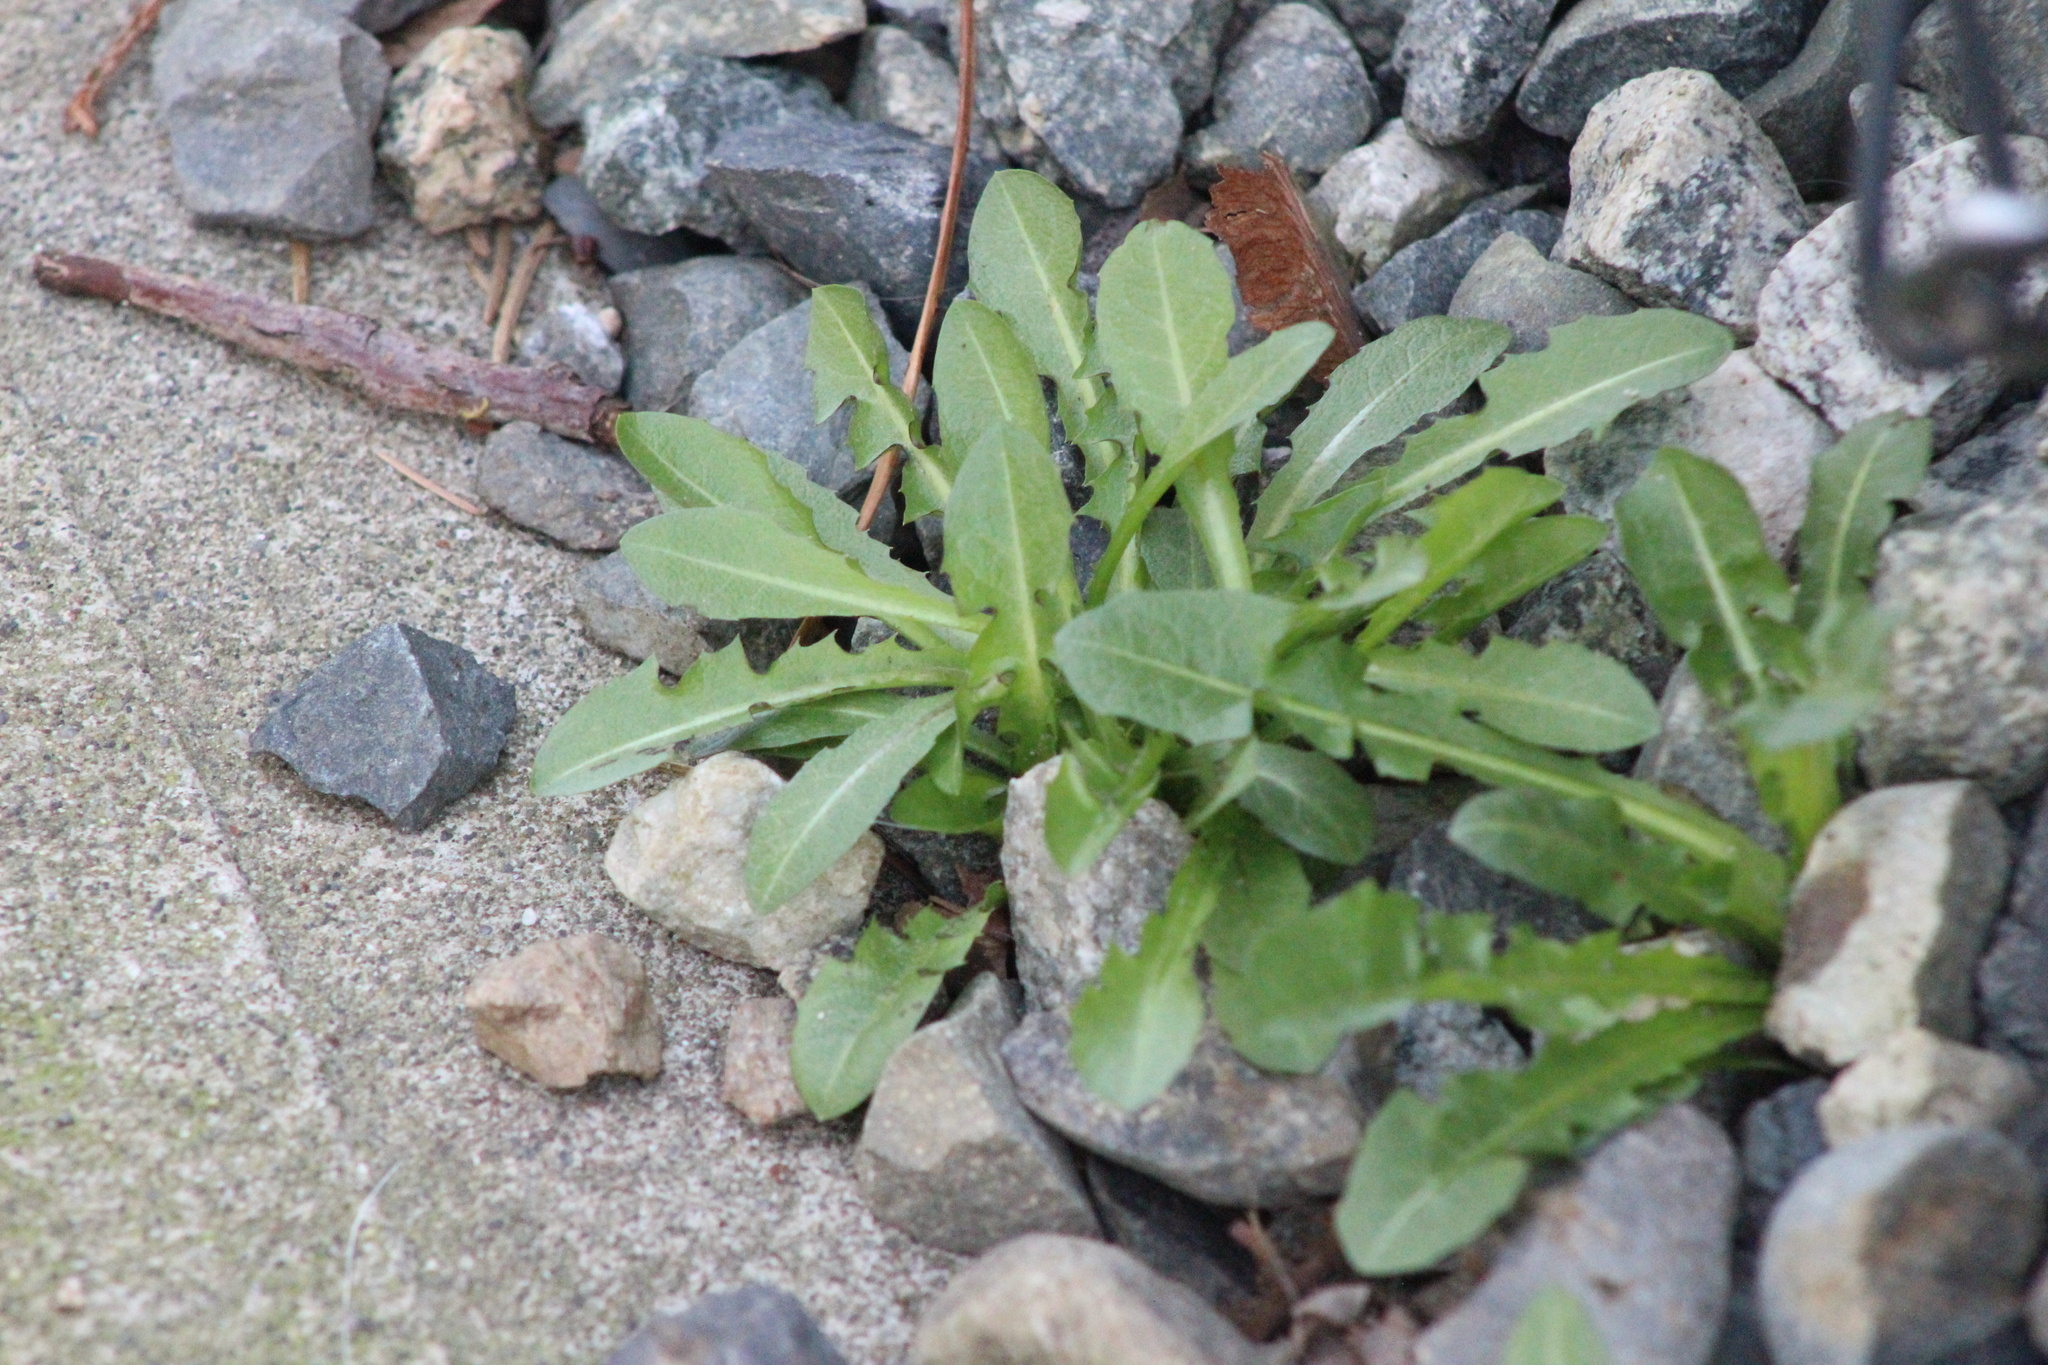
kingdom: Plantae
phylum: Tracheophyta
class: Magnoliopsida
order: Asterales
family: Asteraceae
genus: Taraxacum
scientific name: Taraxacum officinale
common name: Common dandelion
